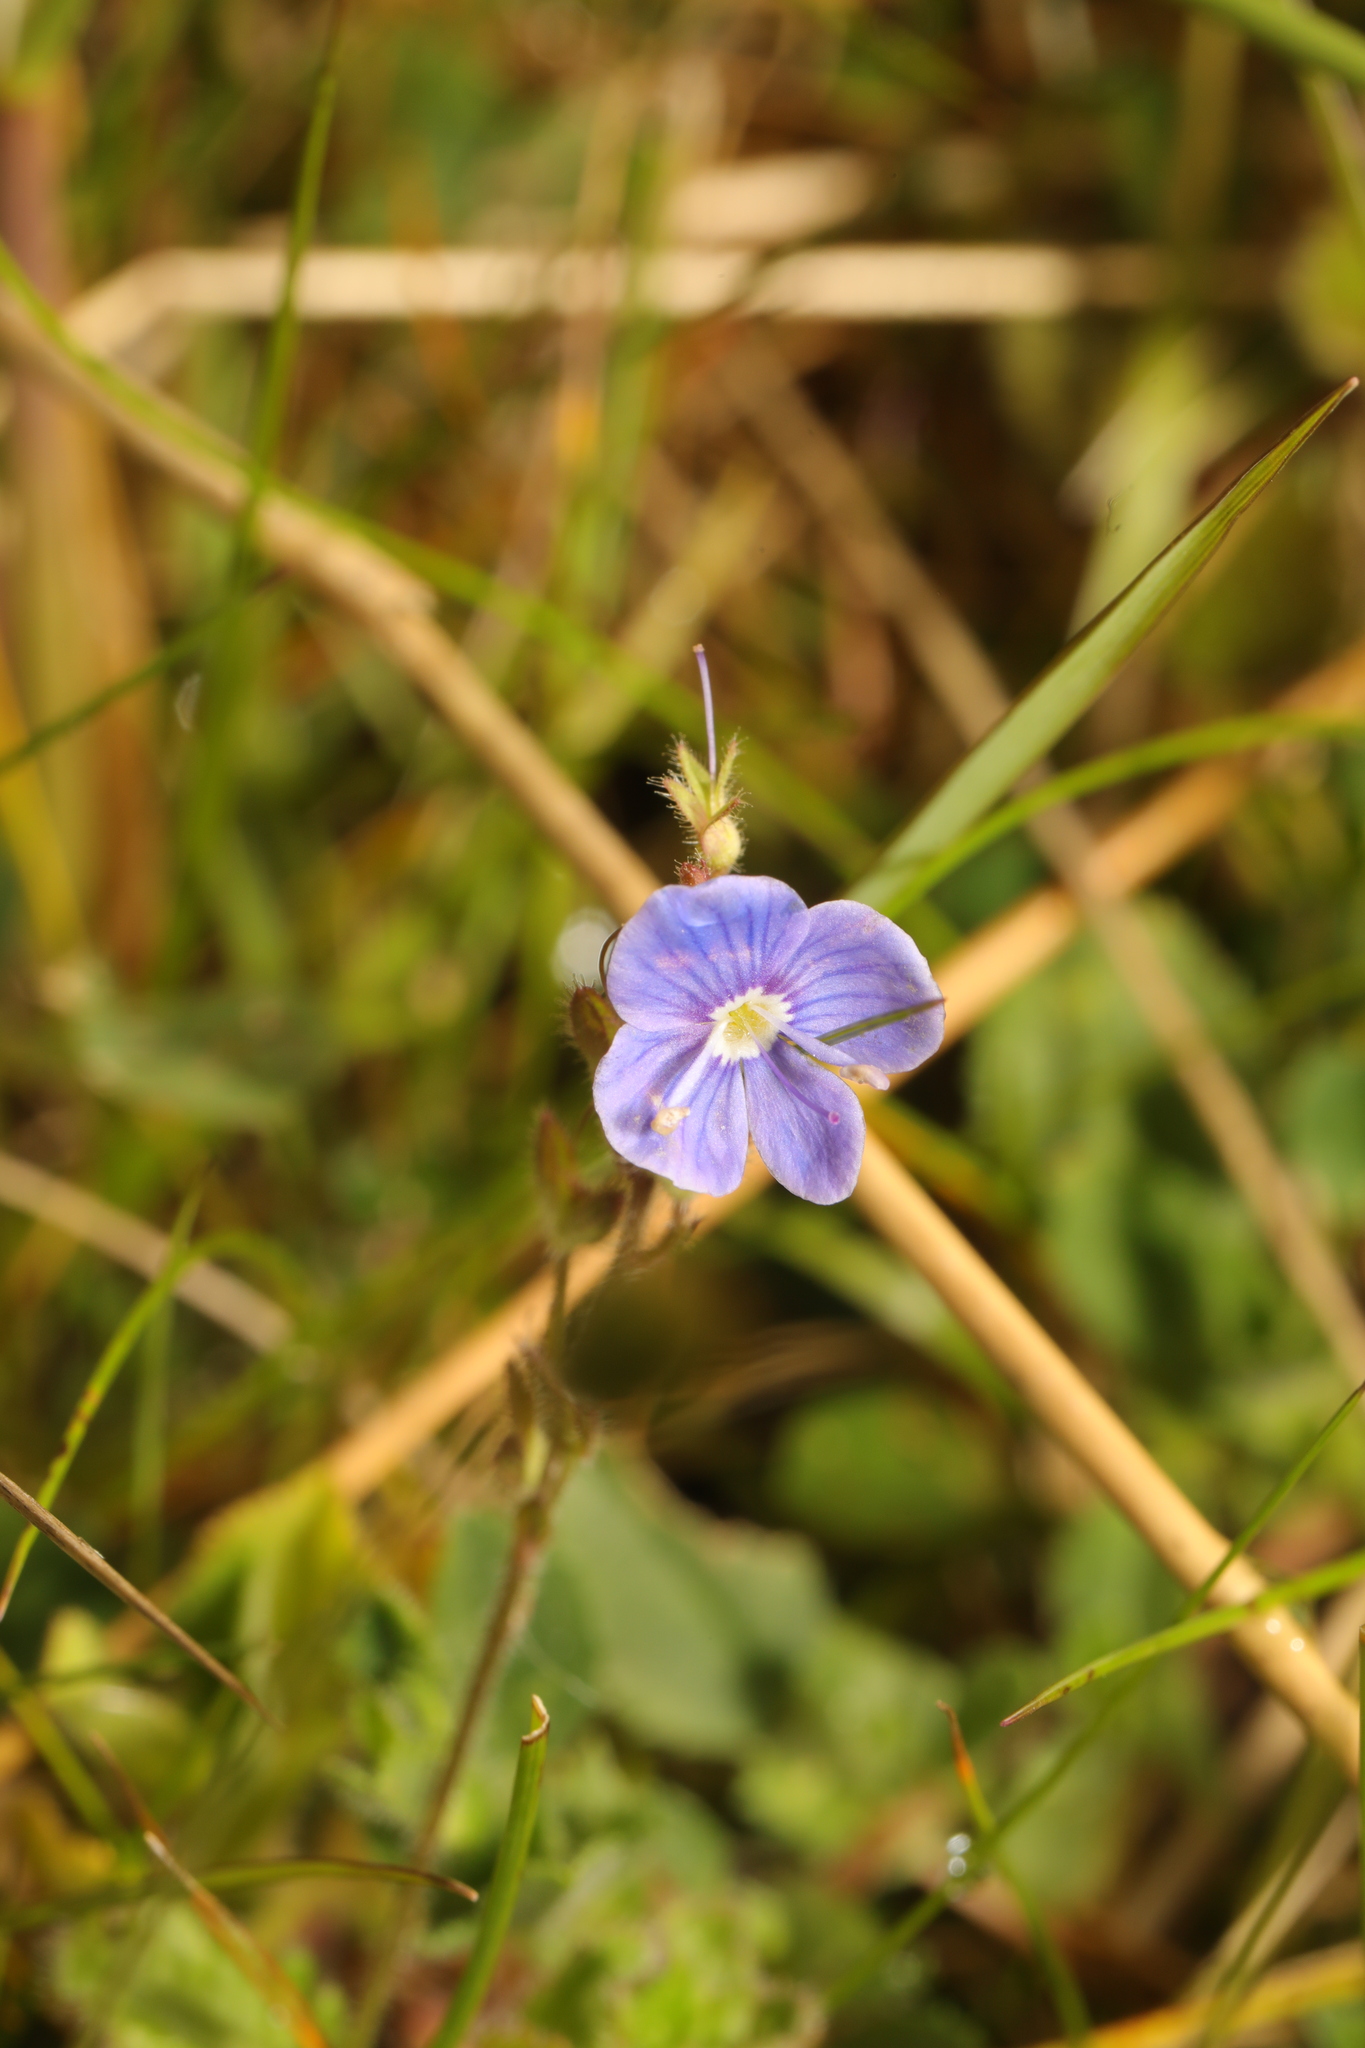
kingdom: Plantae
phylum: Tracheophyta
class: Magnoliopsida
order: Lamiales
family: Plantaginaceae
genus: Veronica
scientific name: Veronica chamaedrys
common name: Germander speedwell
